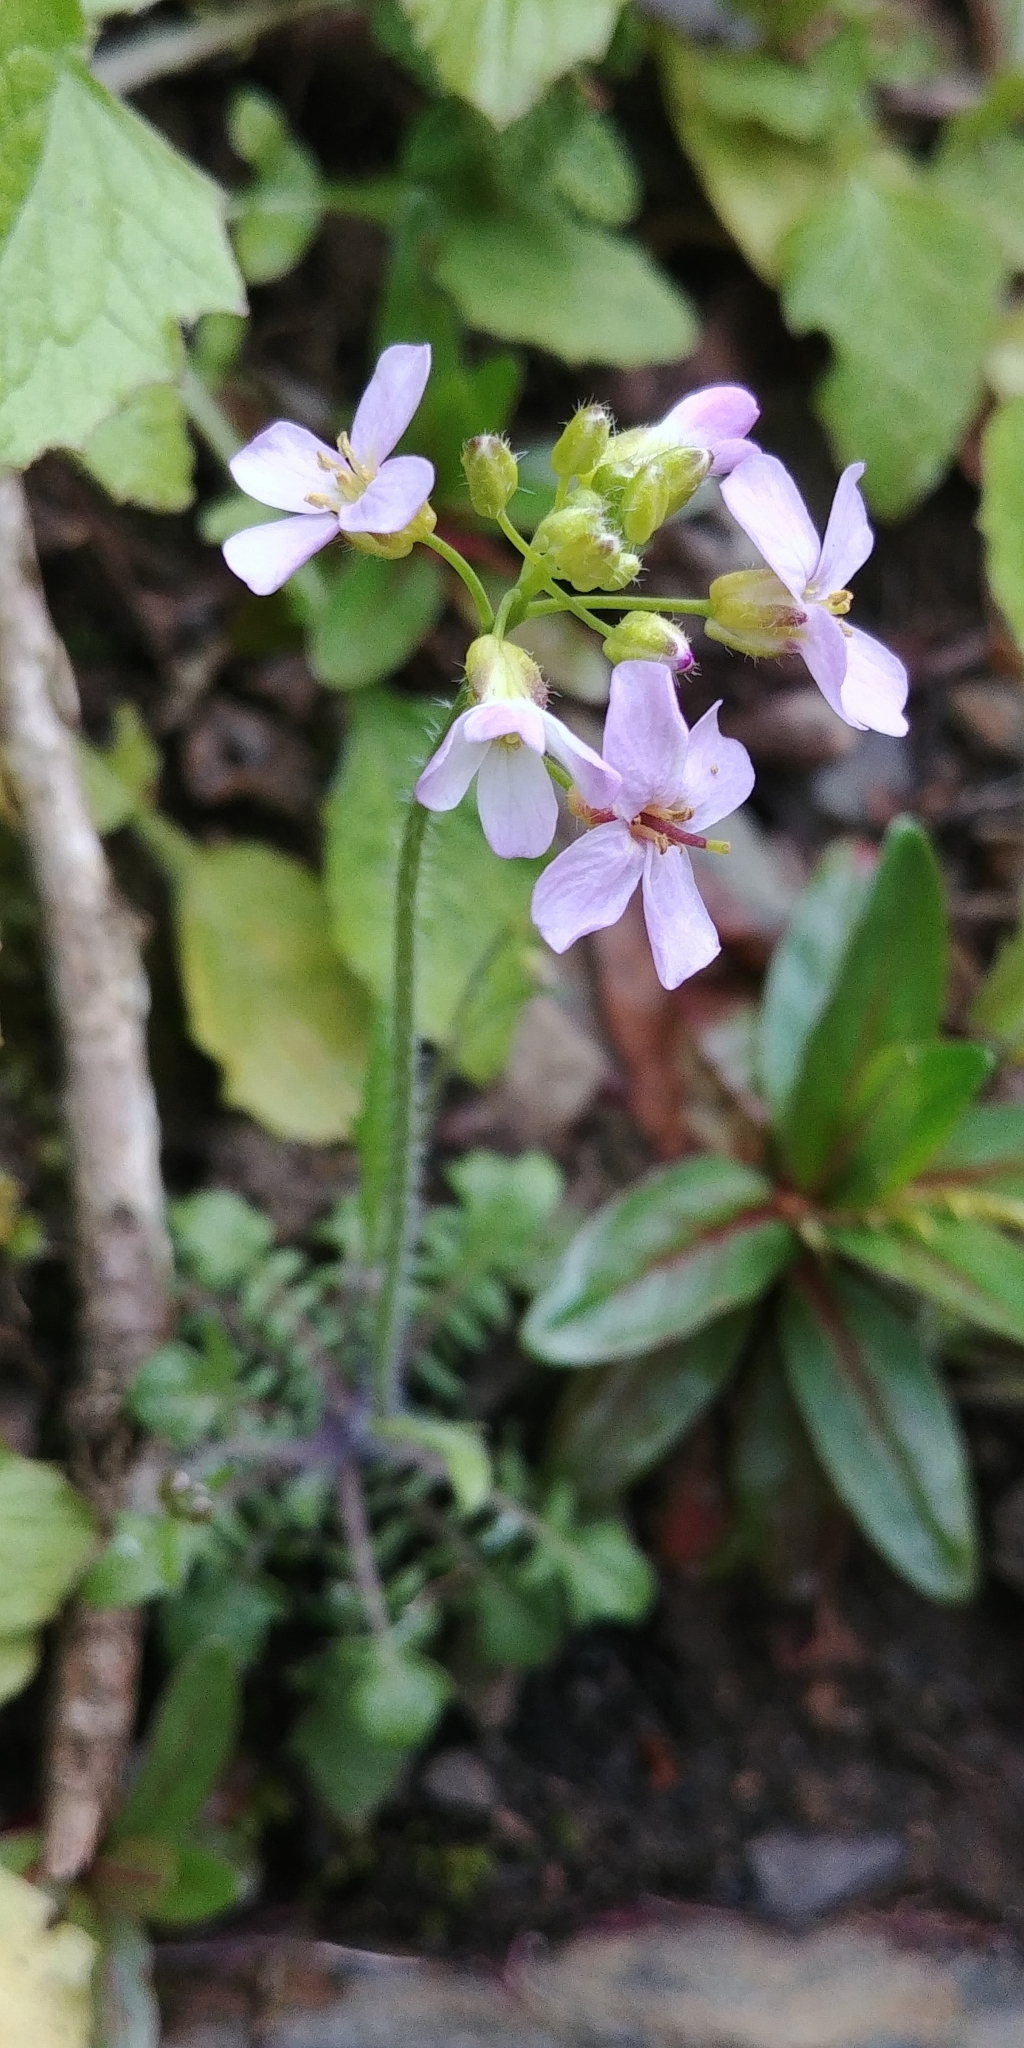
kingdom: Plantae
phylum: Tracheophyta
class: Magnoliopsida
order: Brassicales
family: Brassicaceae
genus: Arabidopsis
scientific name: Arabidopsis arenosa
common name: Sand rock-cress
